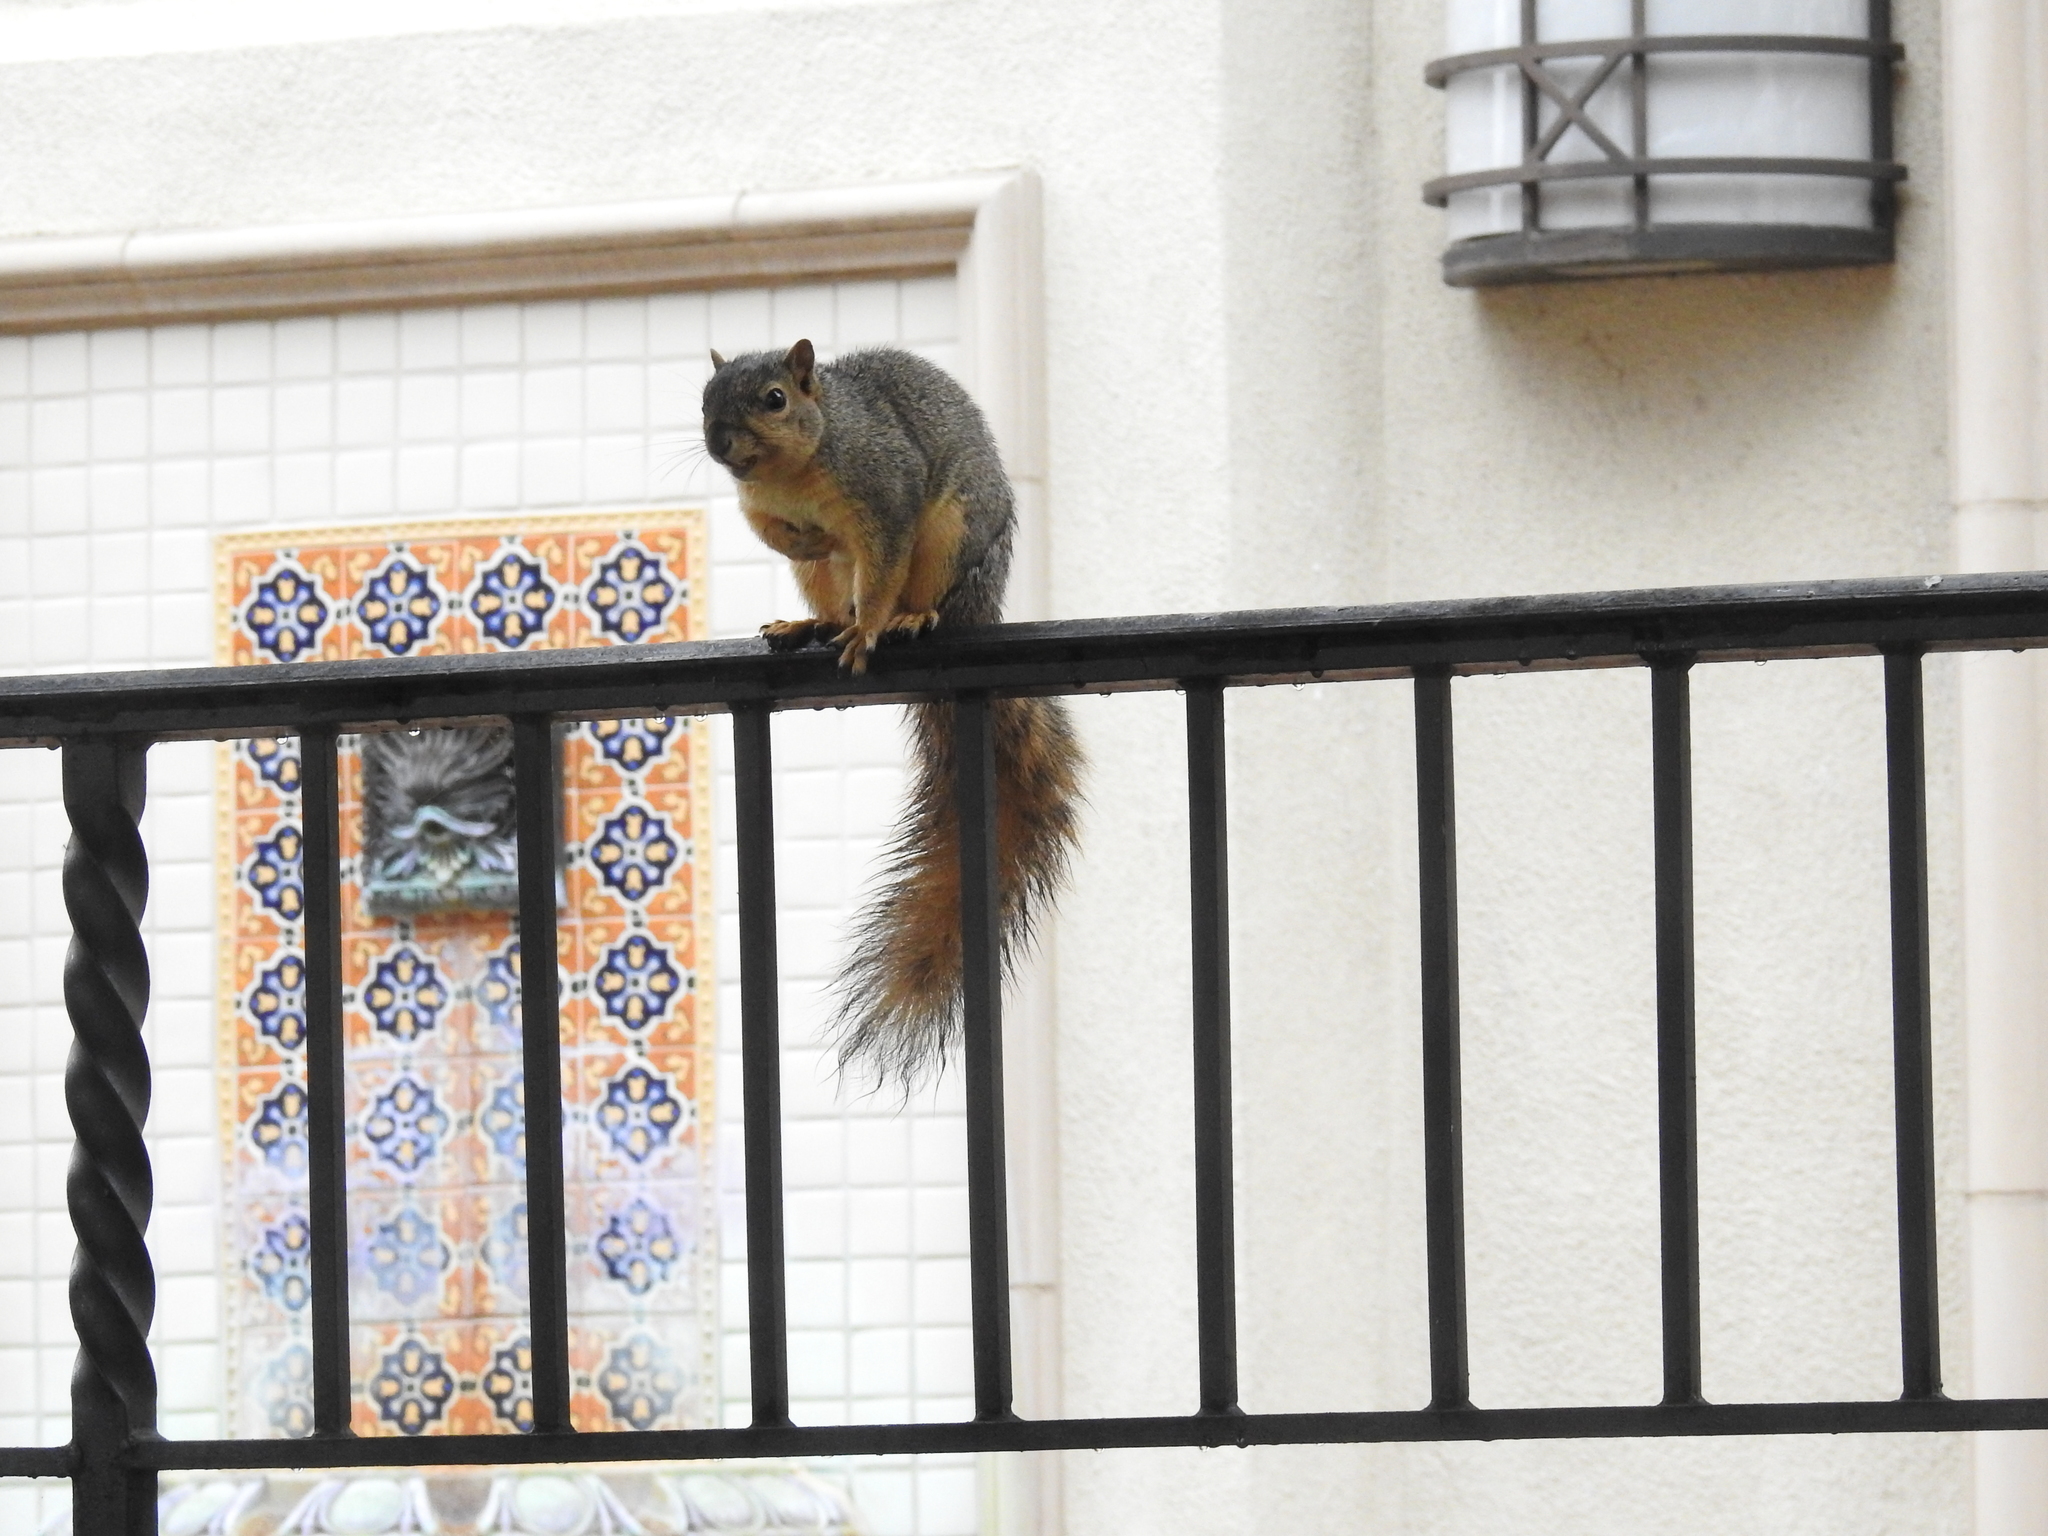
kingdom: Animalia
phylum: Chordata
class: Mammalia
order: Rodentia
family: Sciuridae
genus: Sciurus
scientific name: Sciurus niger
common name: Fox squirrel
